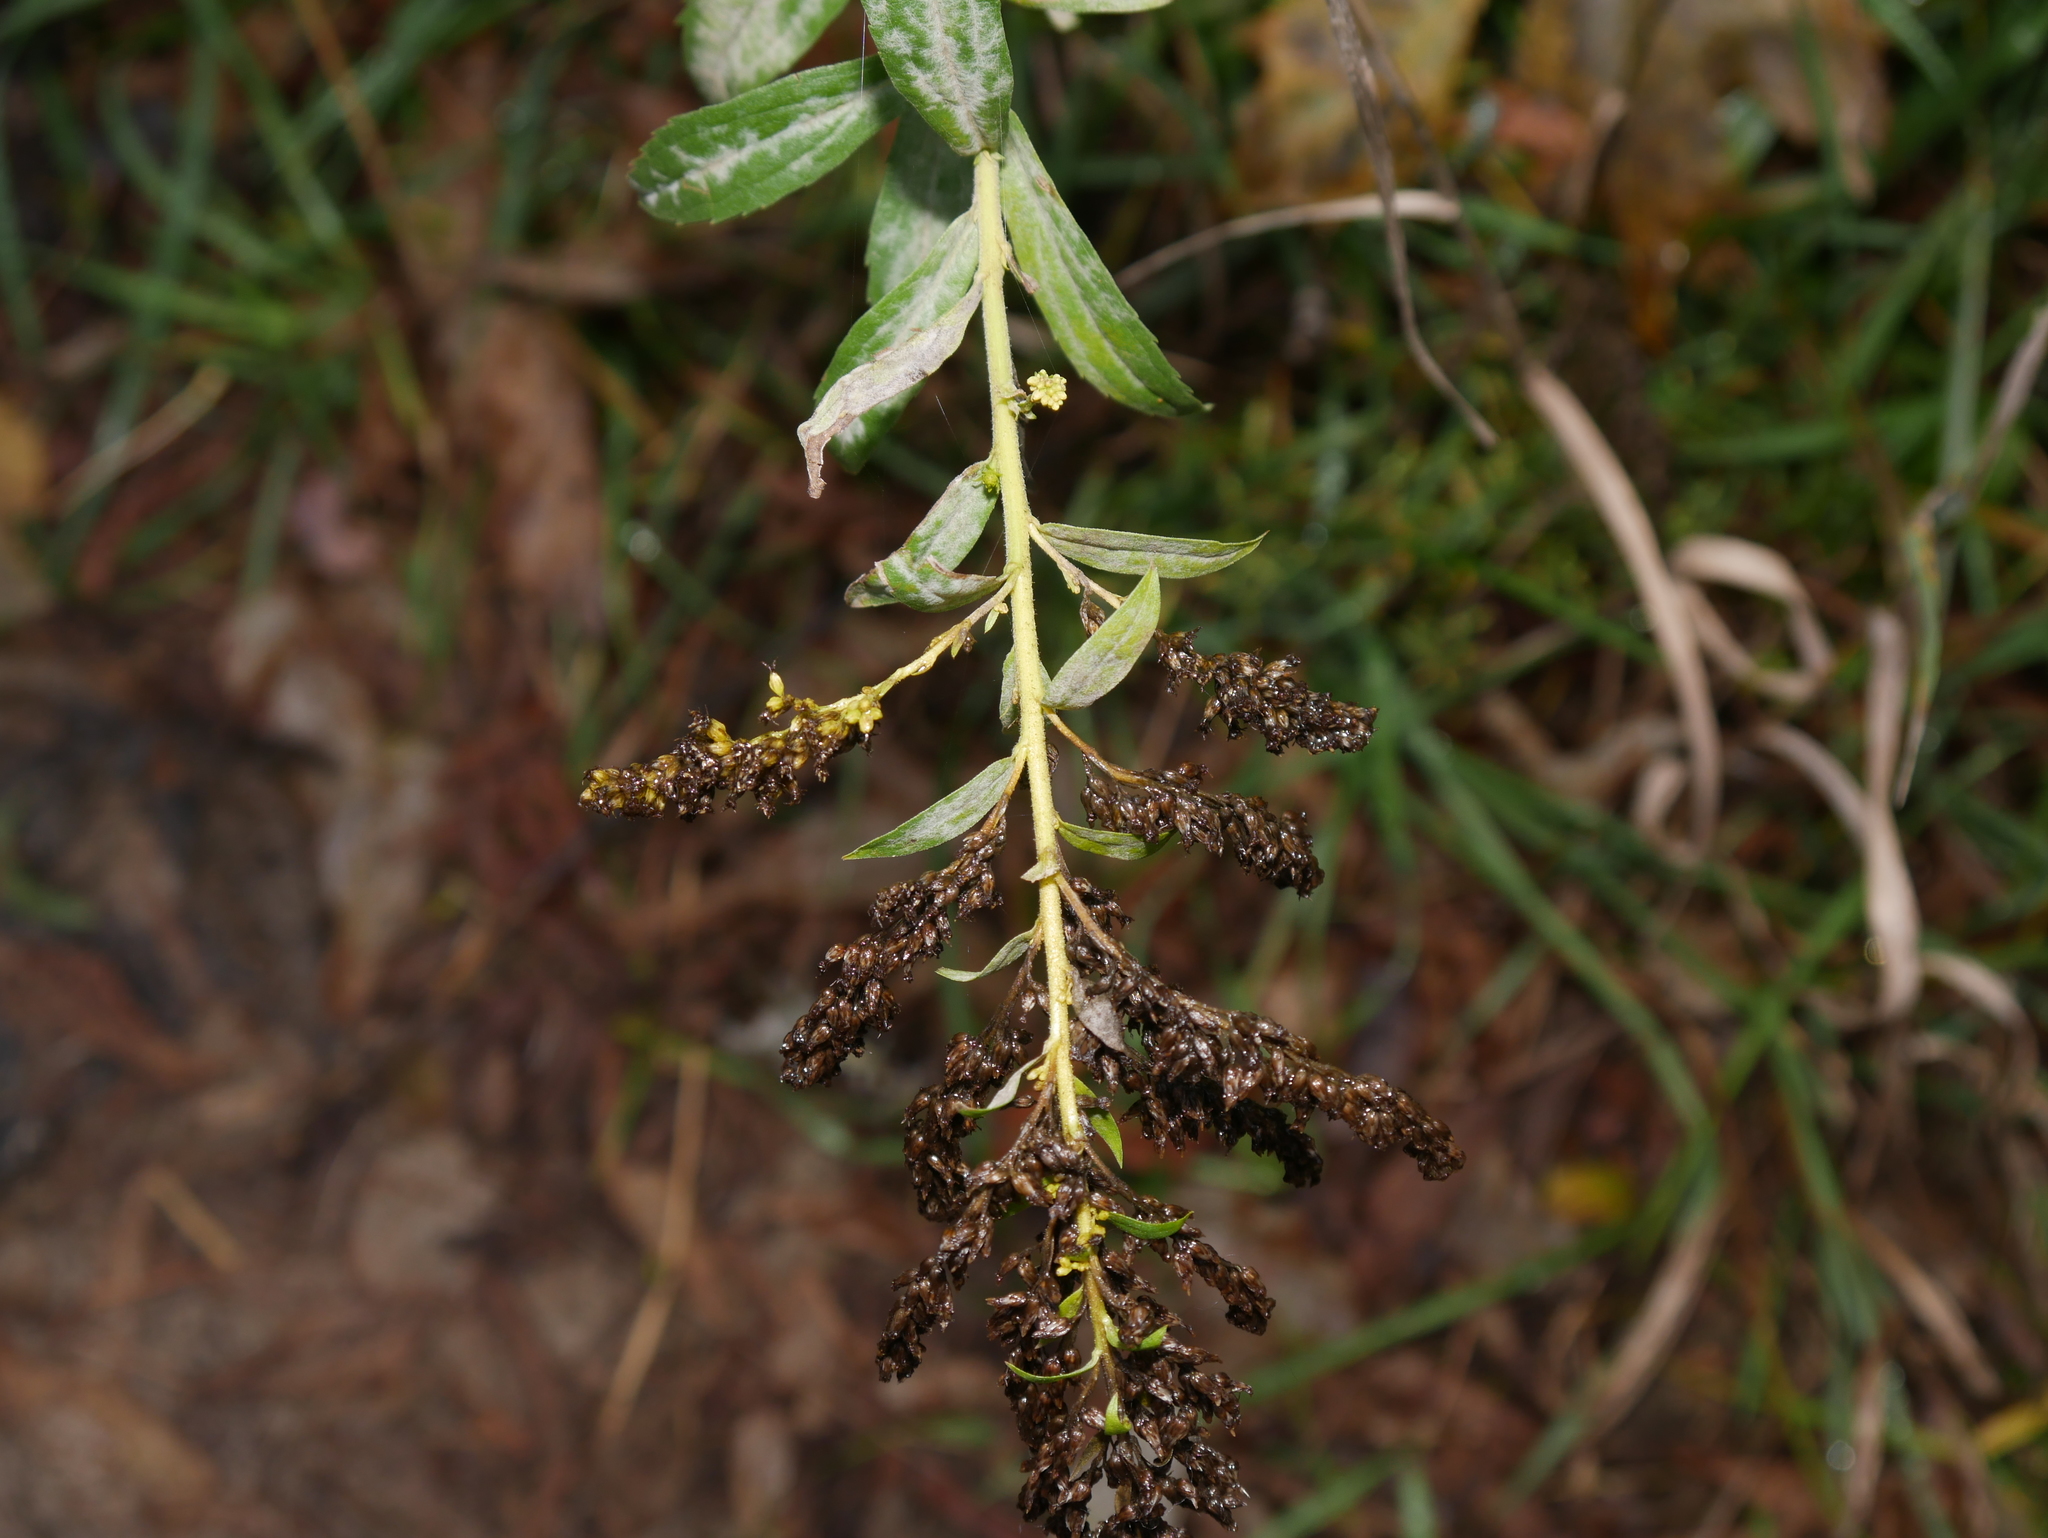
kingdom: Plantae
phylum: Tracheophyta
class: Magnoliopsida
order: Asterales
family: Asteraceae
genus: Solidago
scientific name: Solidago canadensis
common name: Canada goldenrod
